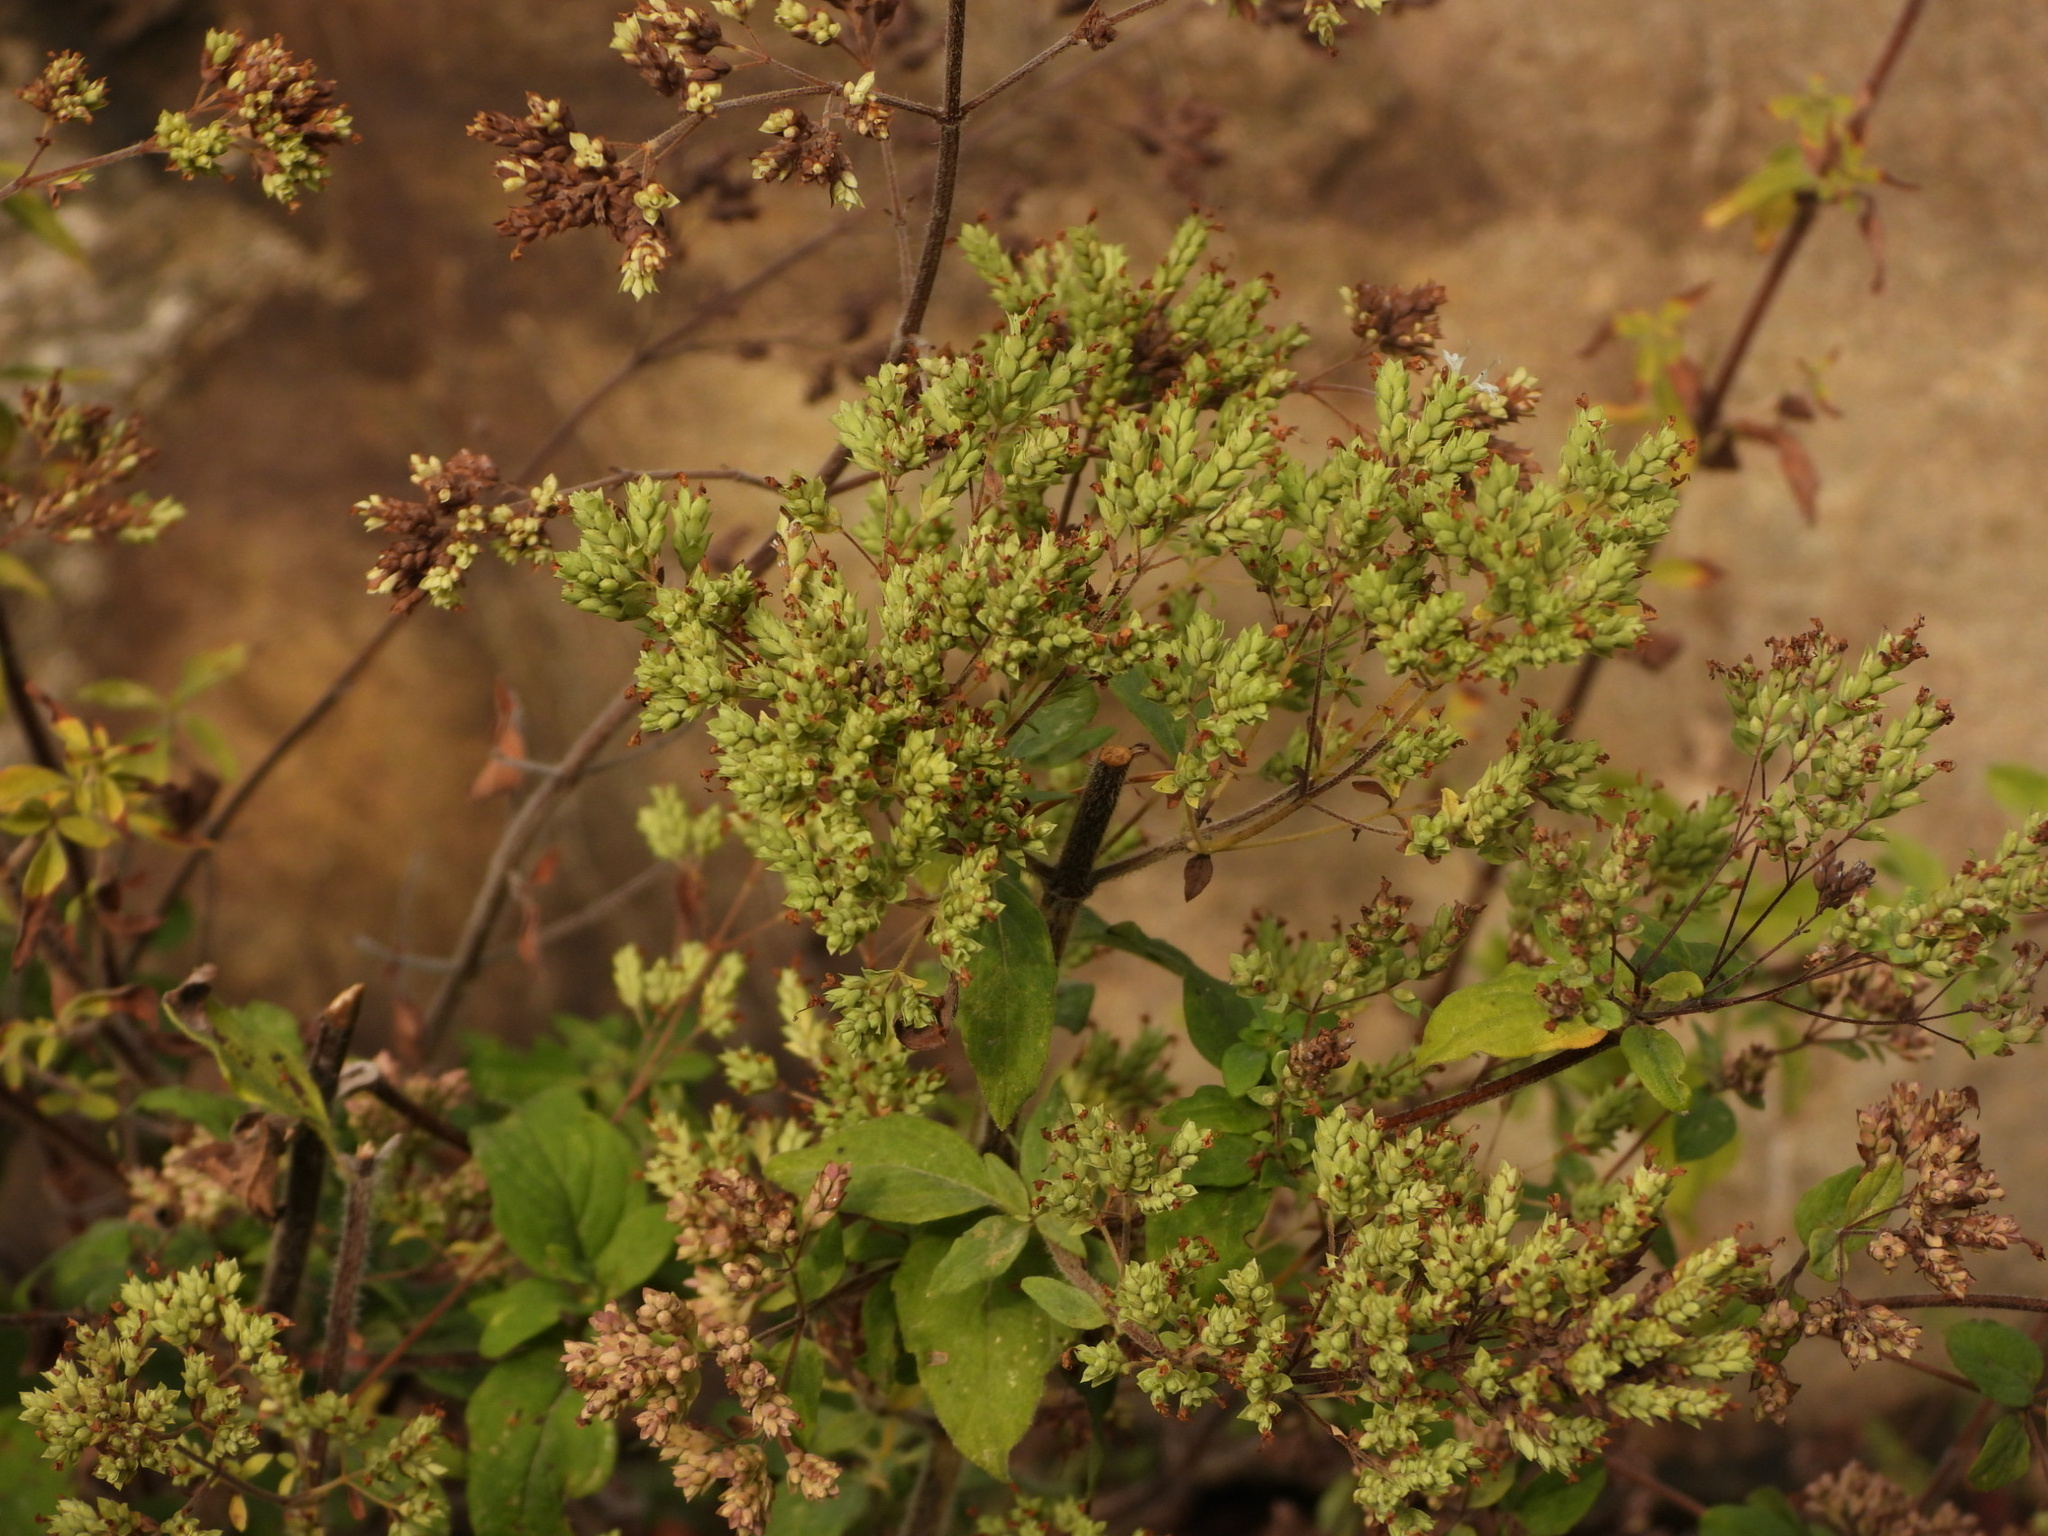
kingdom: Plantae
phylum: Tracheophyta
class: Magnoliopsida
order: Lamiales
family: Lamiaceae
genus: Origanum
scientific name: Origanum vulgare
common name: Wild marjoram
